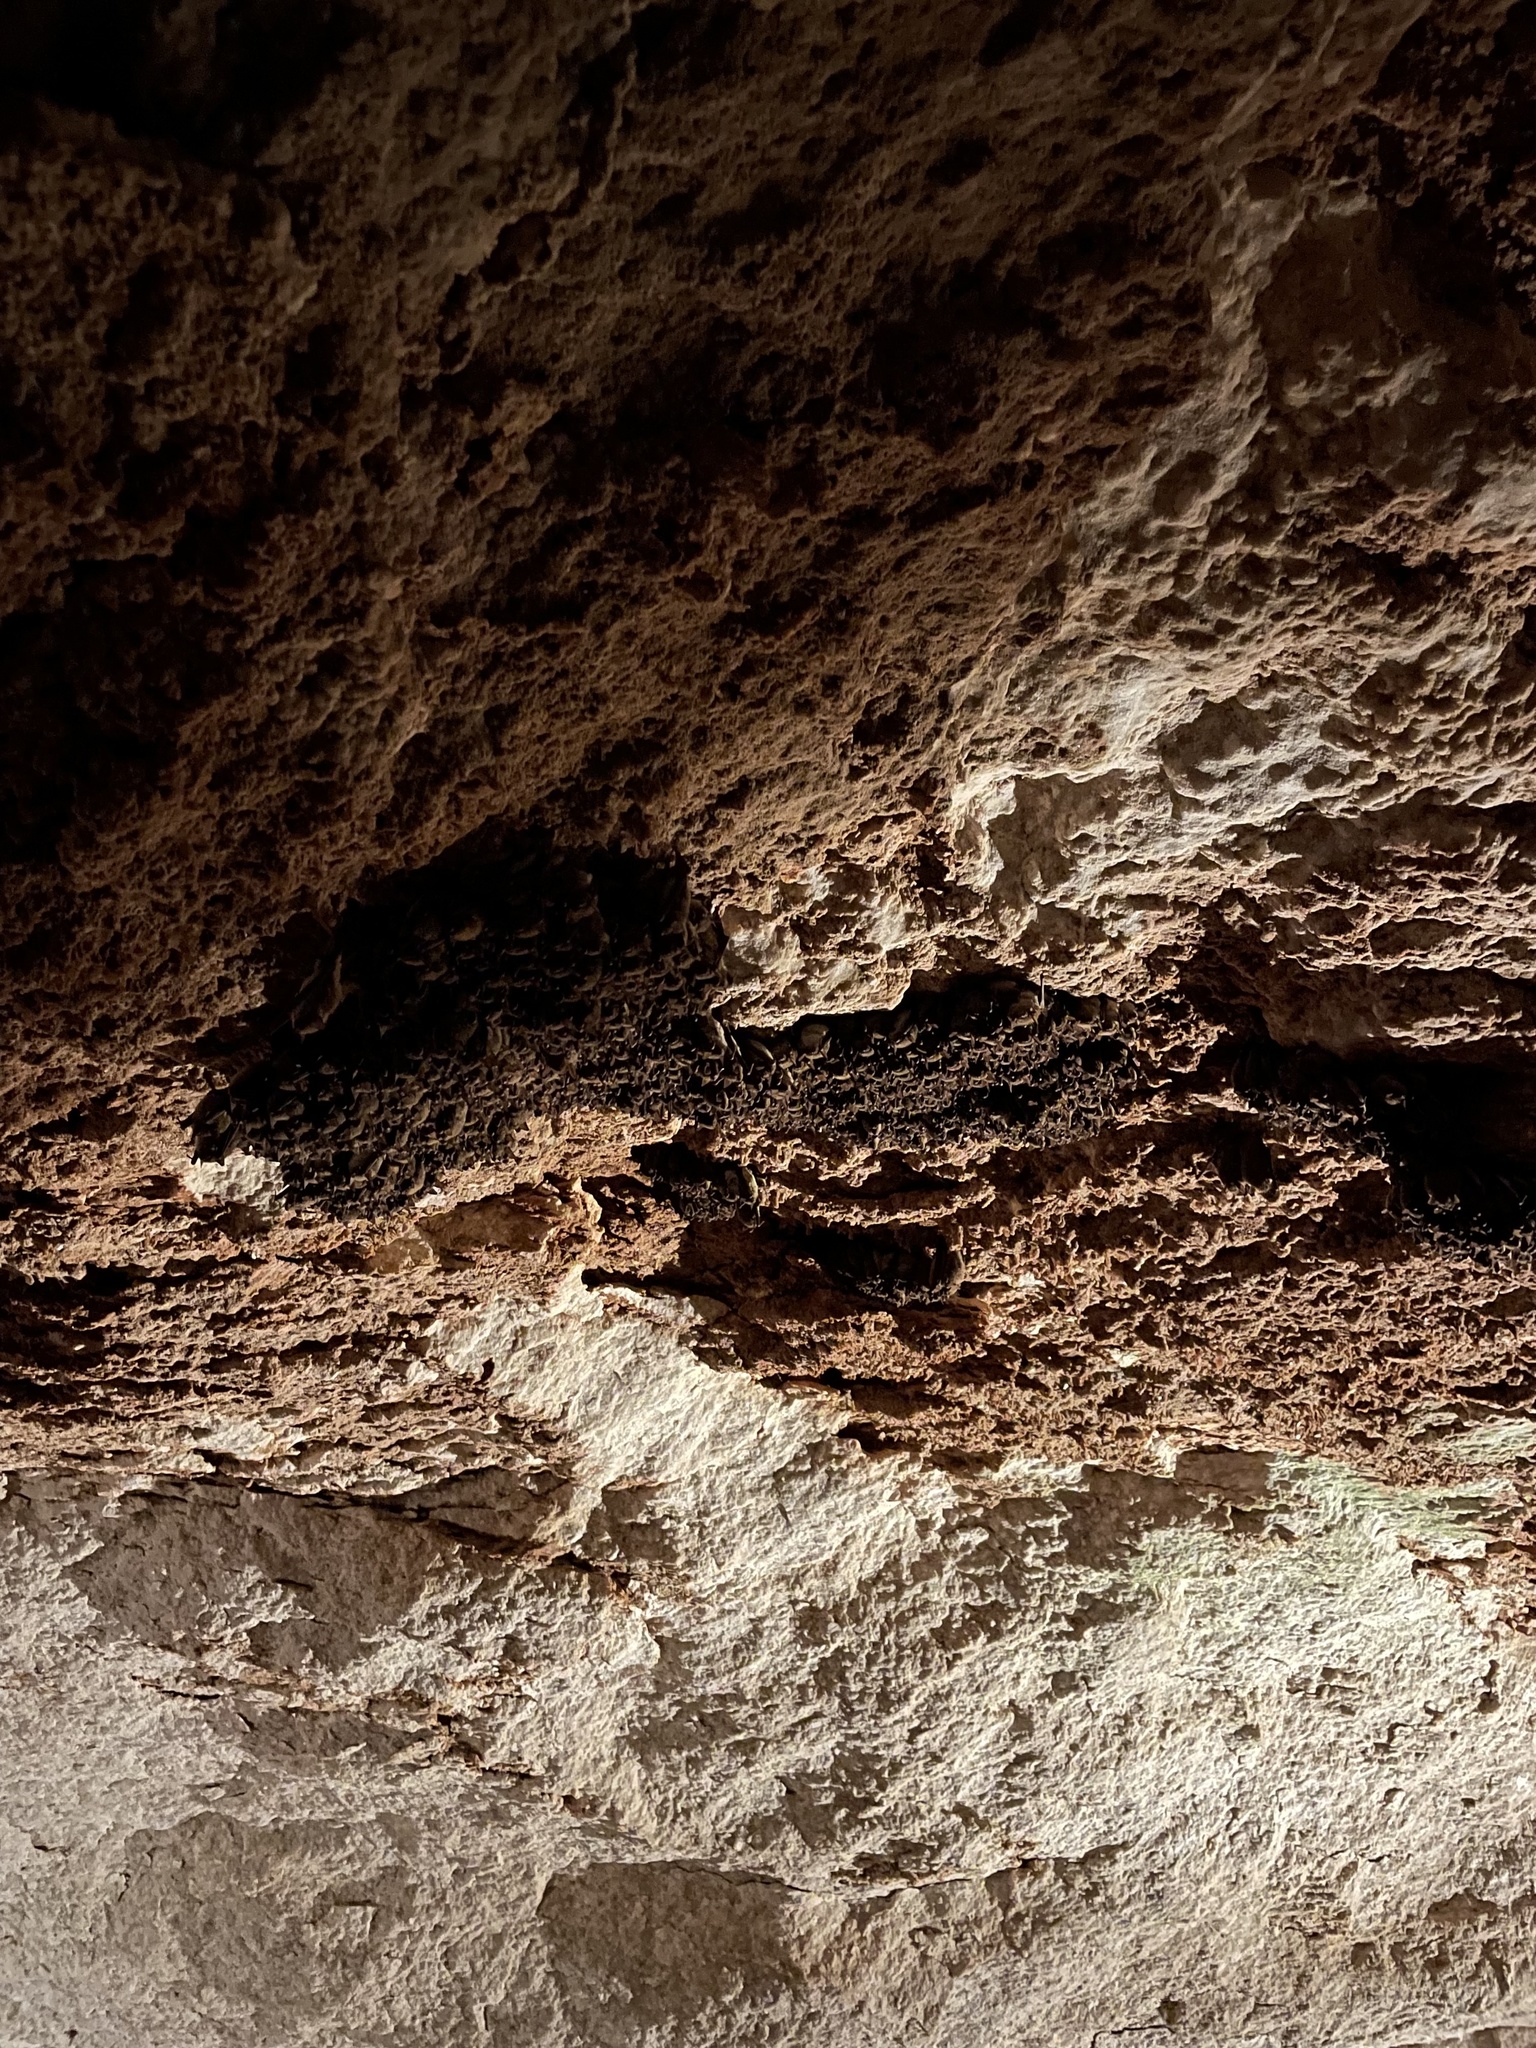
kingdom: Animalia
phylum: Chordata
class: Mammalia
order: Chiroptera
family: Vespertilionidae
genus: Myotis
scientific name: Myotis velifer
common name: Cave myotis
